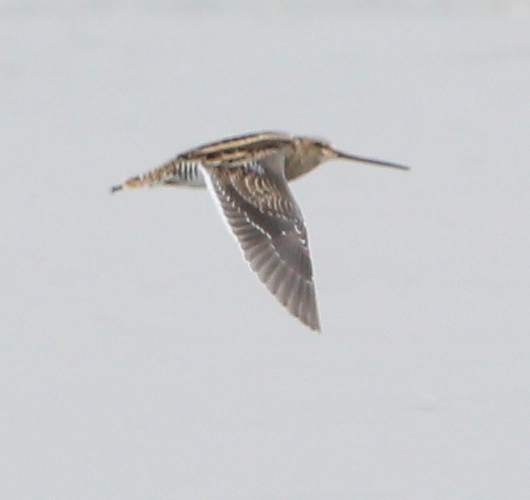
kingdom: Animalia
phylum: Chordata
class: Aves
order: Charadriiformes
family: Scolopacidae
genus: Gallinago
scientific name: Gallinago gallinago
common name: Common snipe
